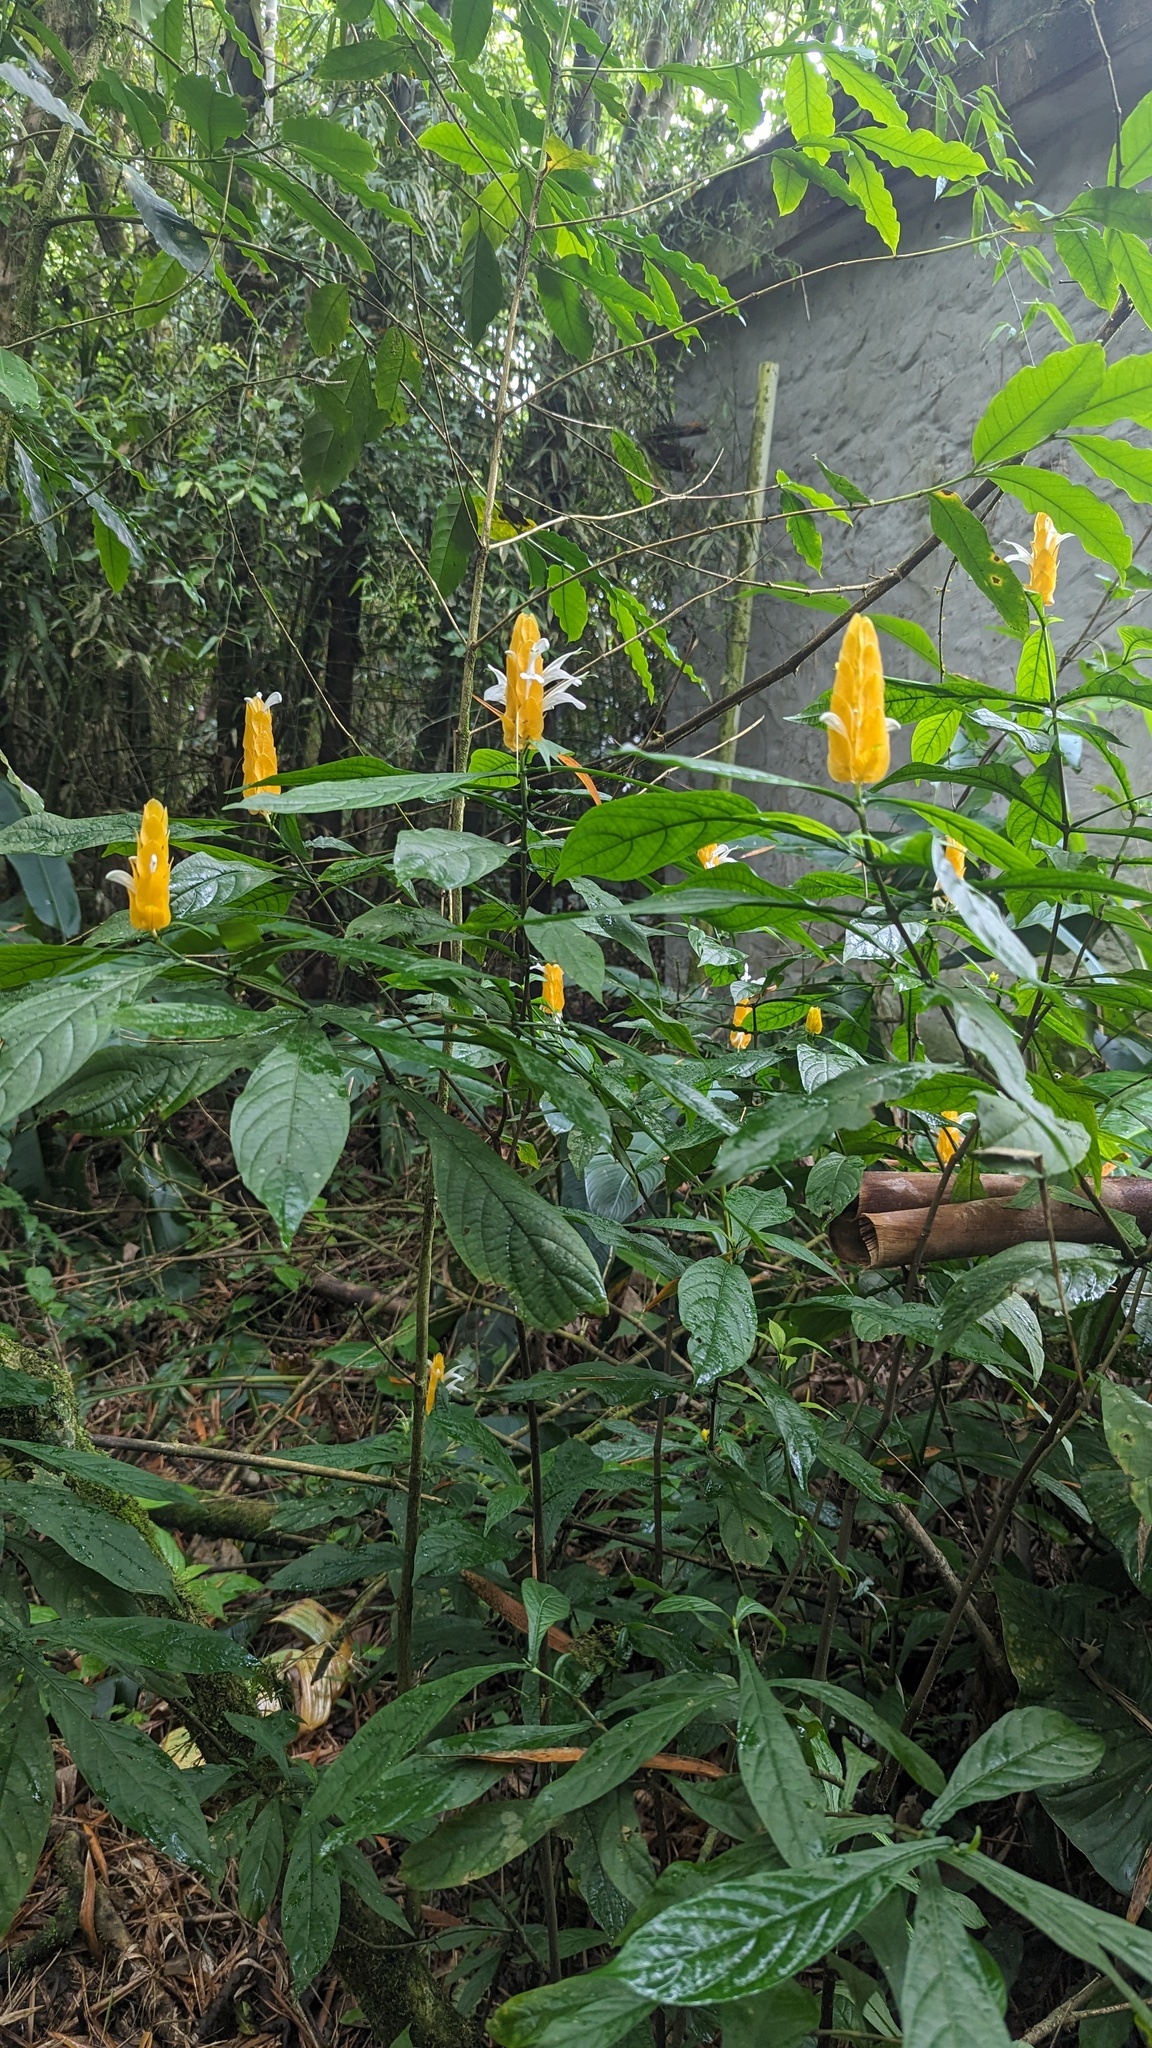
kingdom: Plantae
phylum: Tracheophyta
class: Magnoliopsida
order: Lamiales
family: Acanthaceae
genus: Pachystachys
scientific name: Pachystachys lutea
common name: Golden shrimp-plant
